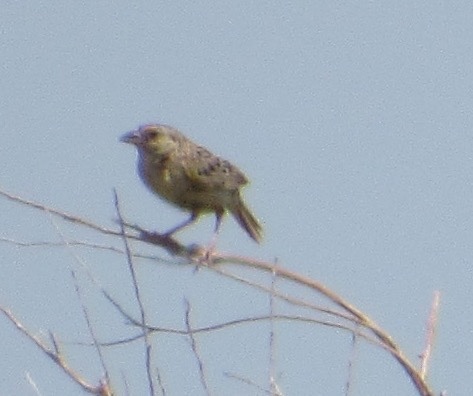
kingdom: Animalia
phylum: Chordata
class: Aves
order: Passeriformes
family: Passerellidae
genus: Ammodramus
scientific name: Ammodramus savannarum
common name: Grasshopper sparrow
